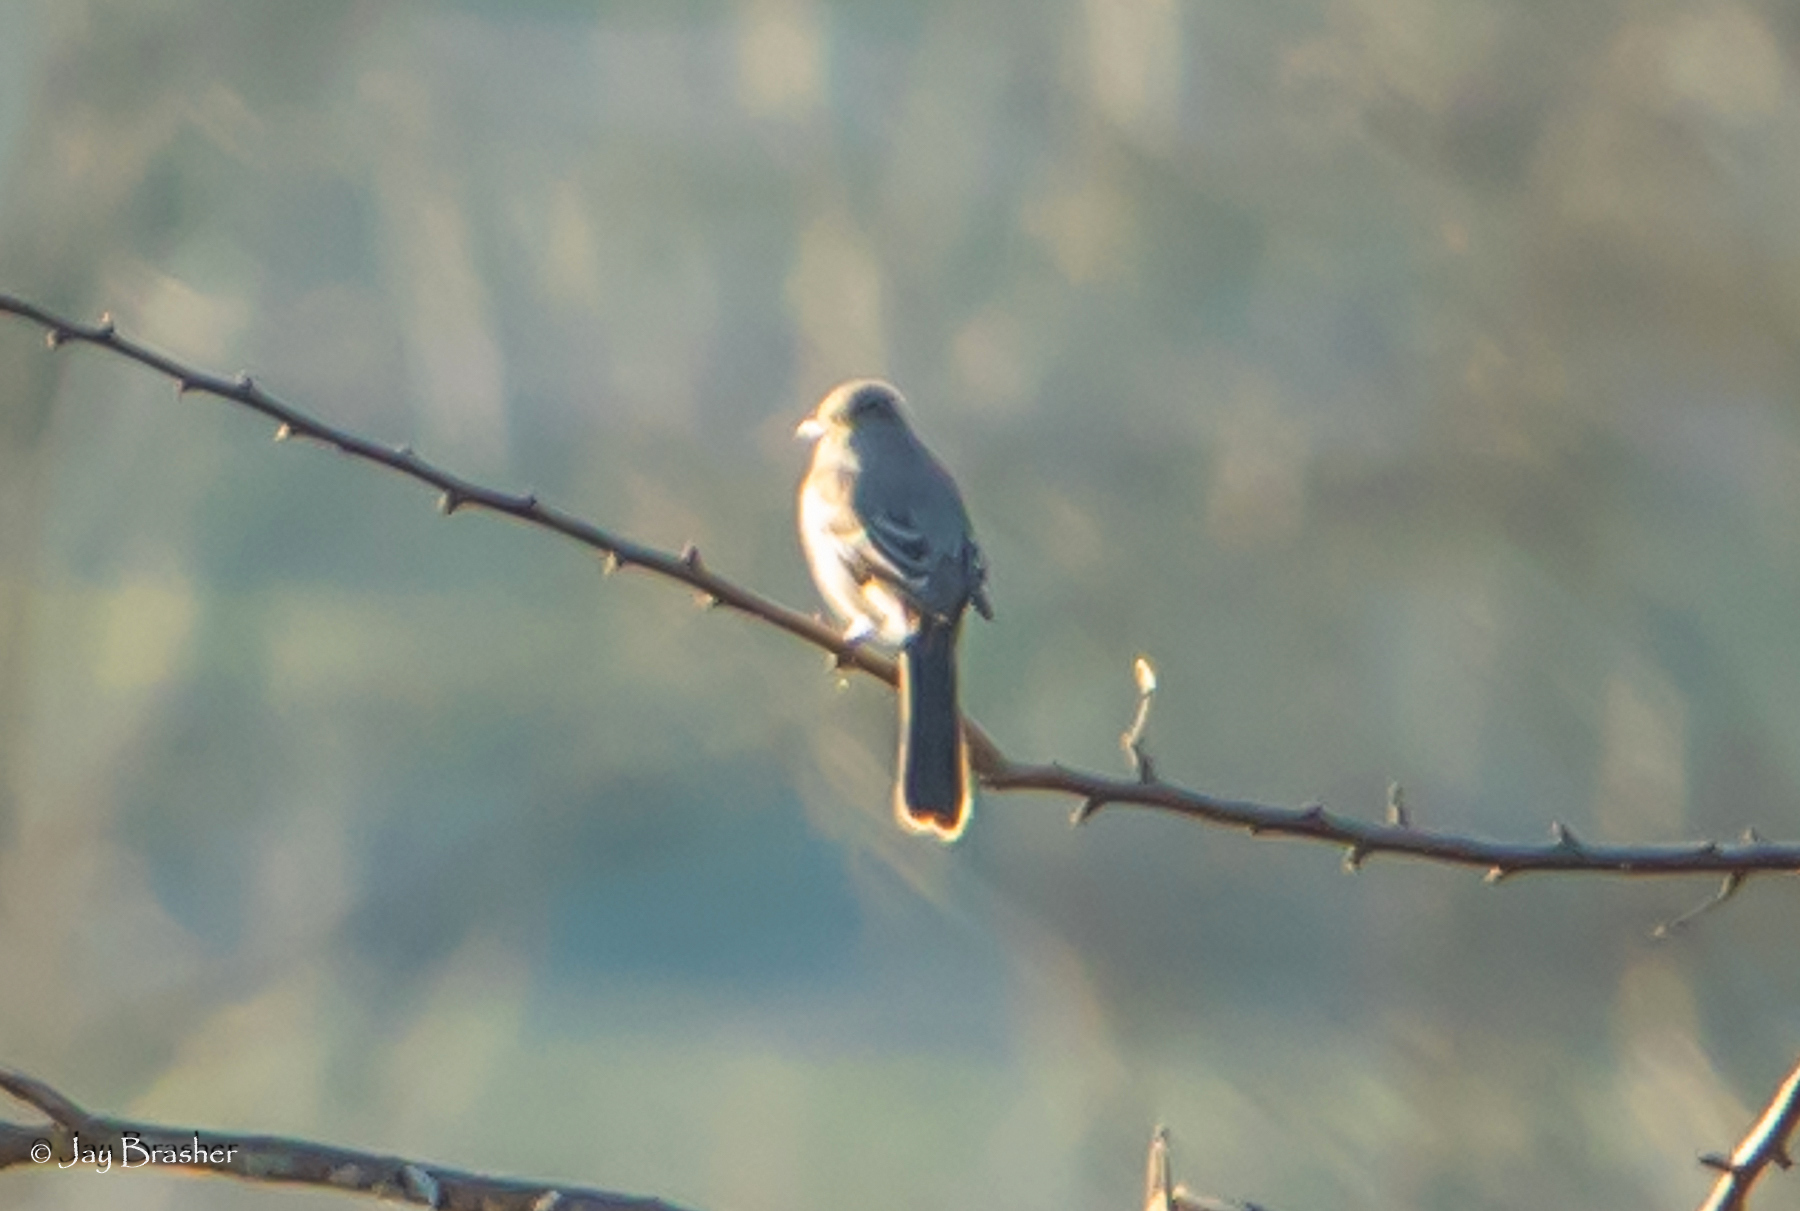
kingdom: Animalia
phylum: Chordata
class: Aves
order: Passeriformes
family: Mimidae
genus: Mimus
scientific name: Mimus polyglottos
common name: Northern mockingbird
